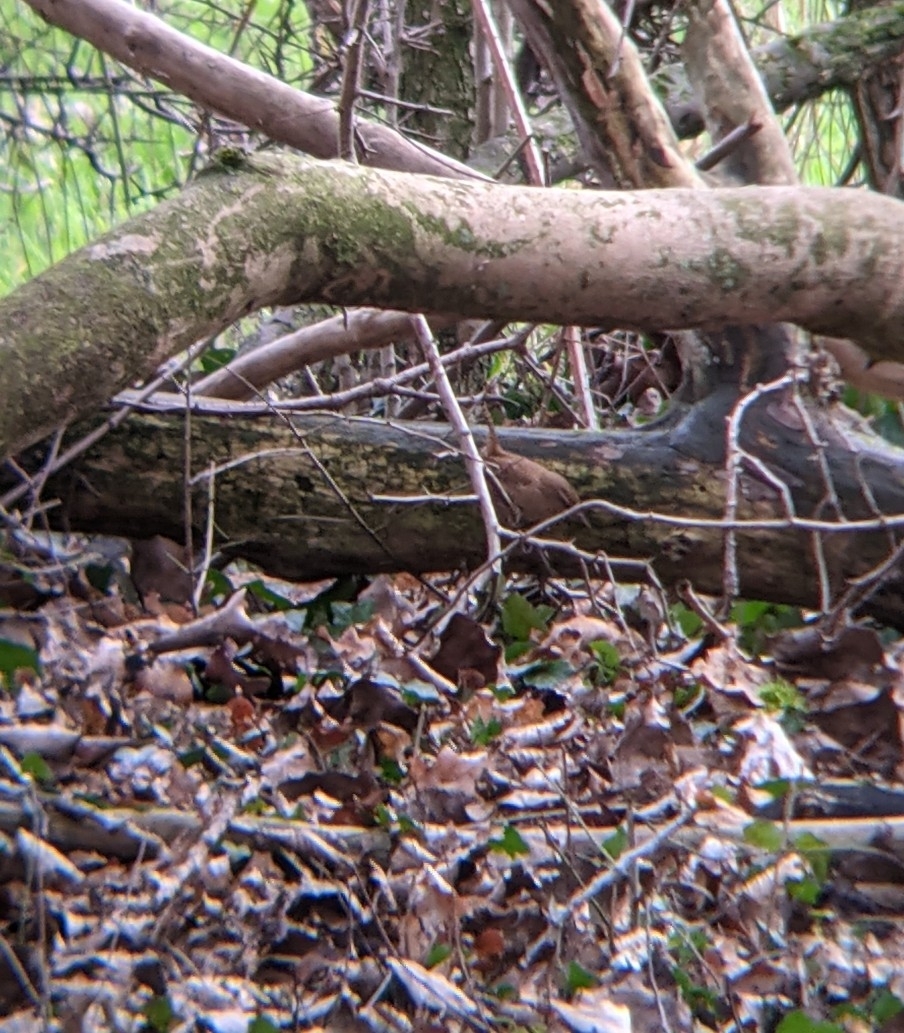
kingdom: Animalia
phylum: Chordata
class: Aves
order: Passeriformes
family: Troglodytidae
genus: Troglodytes
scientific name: Troglodytes troglodytes
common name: Eurasian wren
